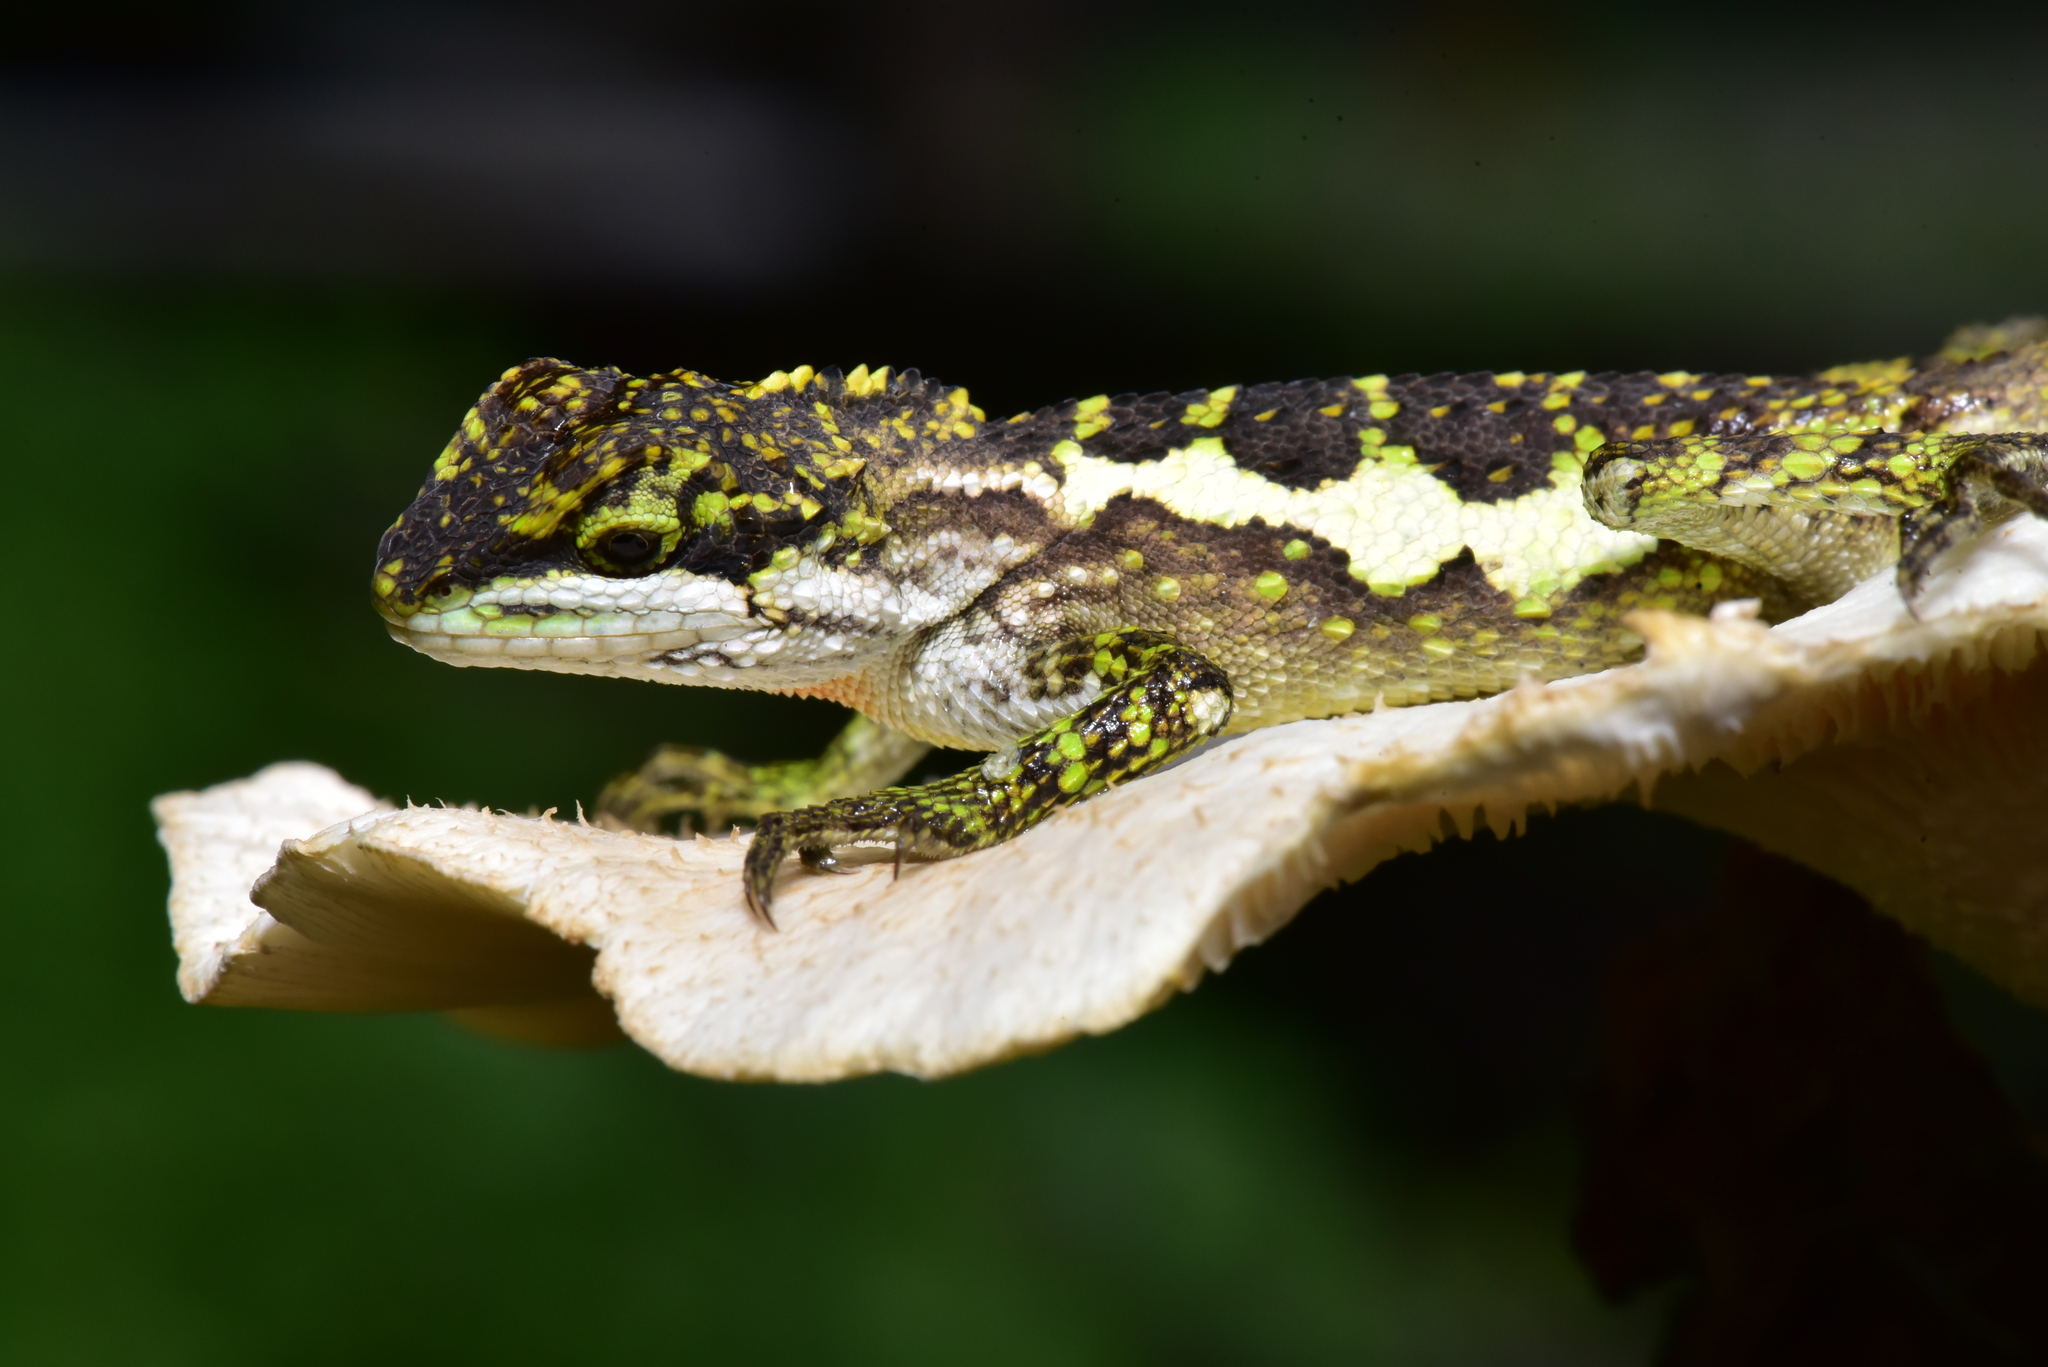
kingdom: Fungi
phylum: Basidiomycota
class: Agaricomycetes
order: Boletales
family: Diplocystidiaceae
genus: Diploderma
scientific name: Diploderma polygonatum
